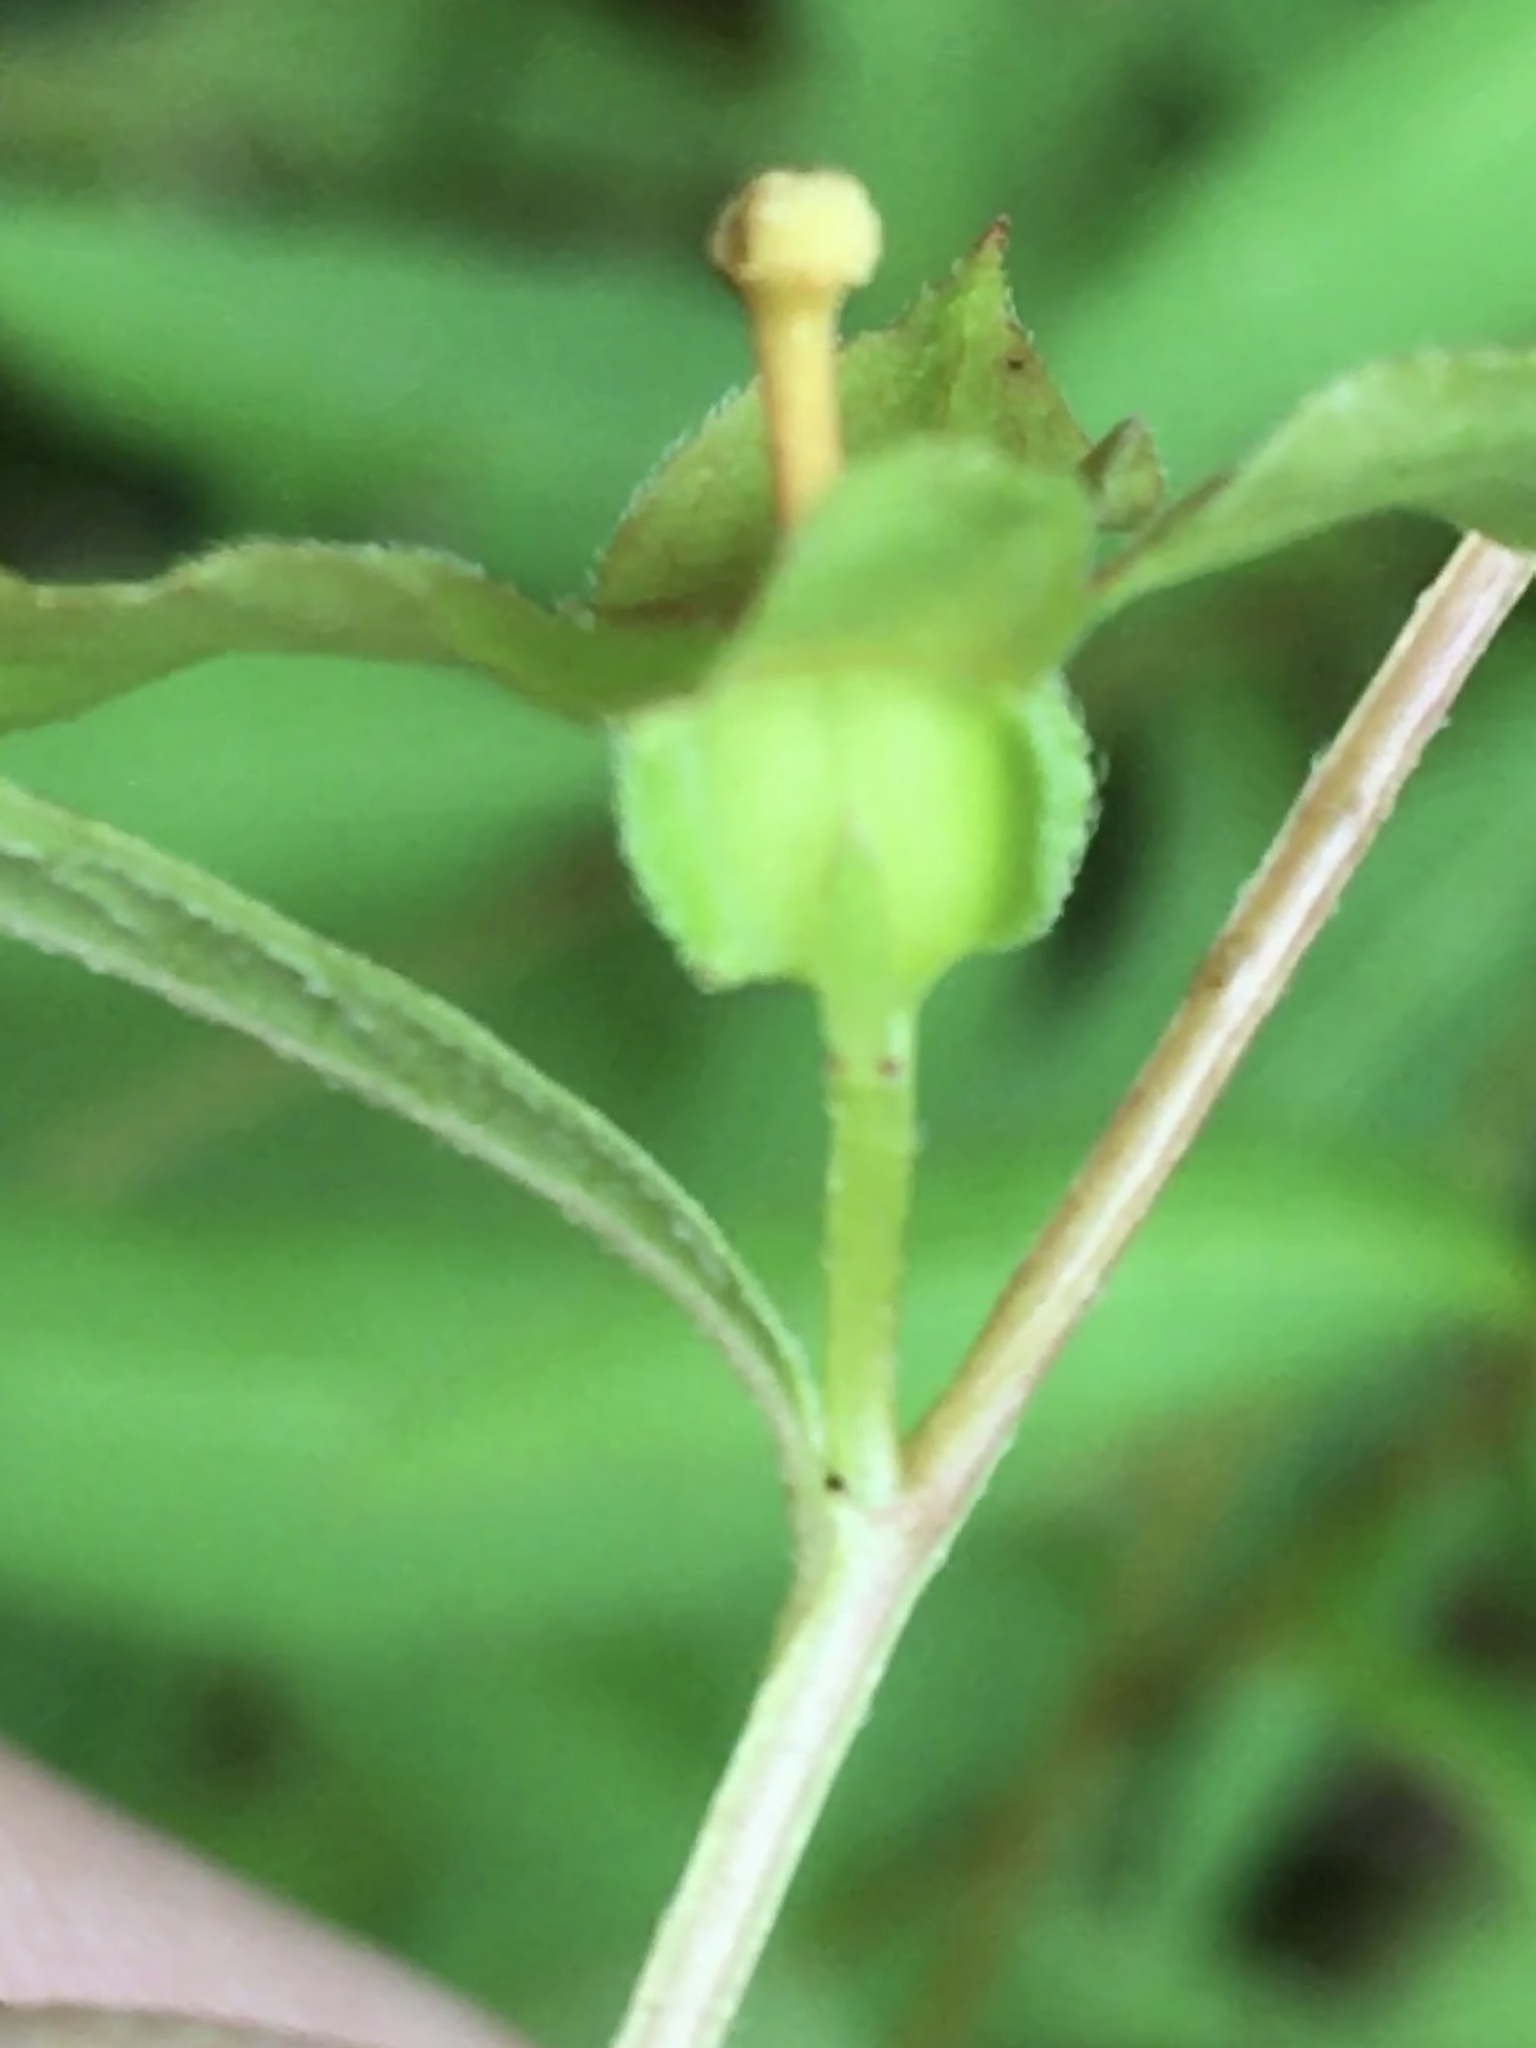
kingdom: Plantae
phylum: Tracheophyta
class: Magnoliopsida
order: Myrtales
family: Onagraceae
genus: Ludwigia
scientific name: Ludwigia alternifolia
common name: Rattlebox
